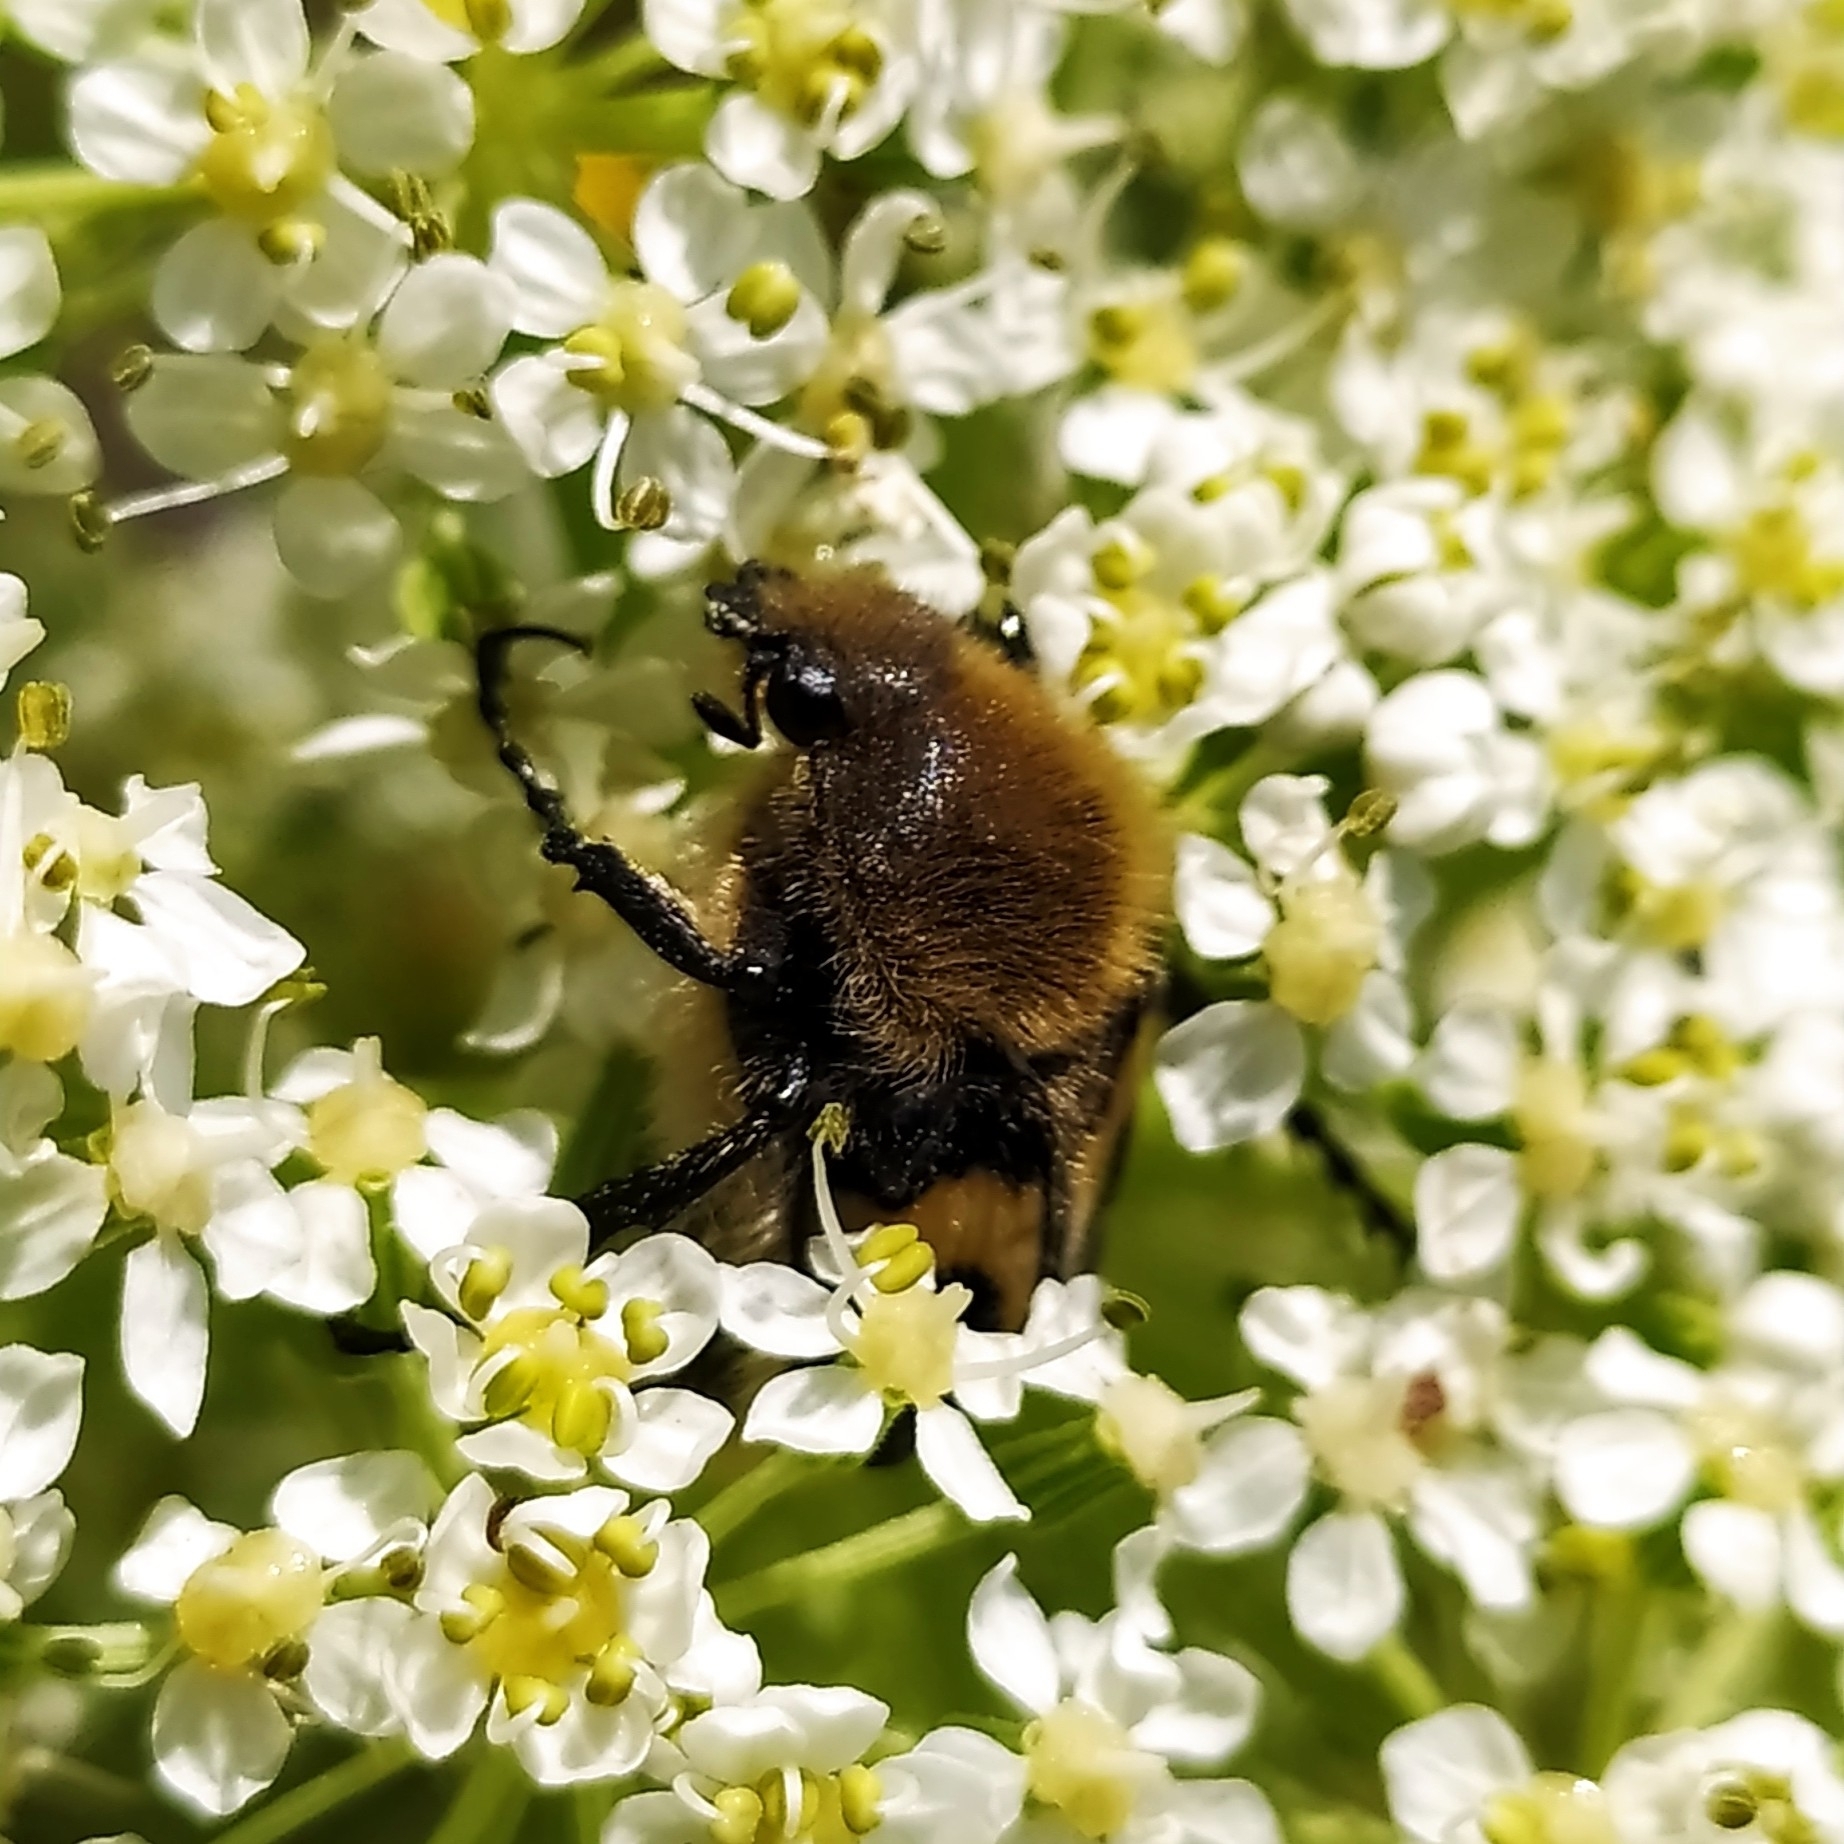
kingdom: Animalia
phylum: Arthropoda
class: Insecta
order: Coleoptera
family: Scarabaeidae
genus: Trichius
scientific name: Trichius fasciatus
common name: Bee beetle
